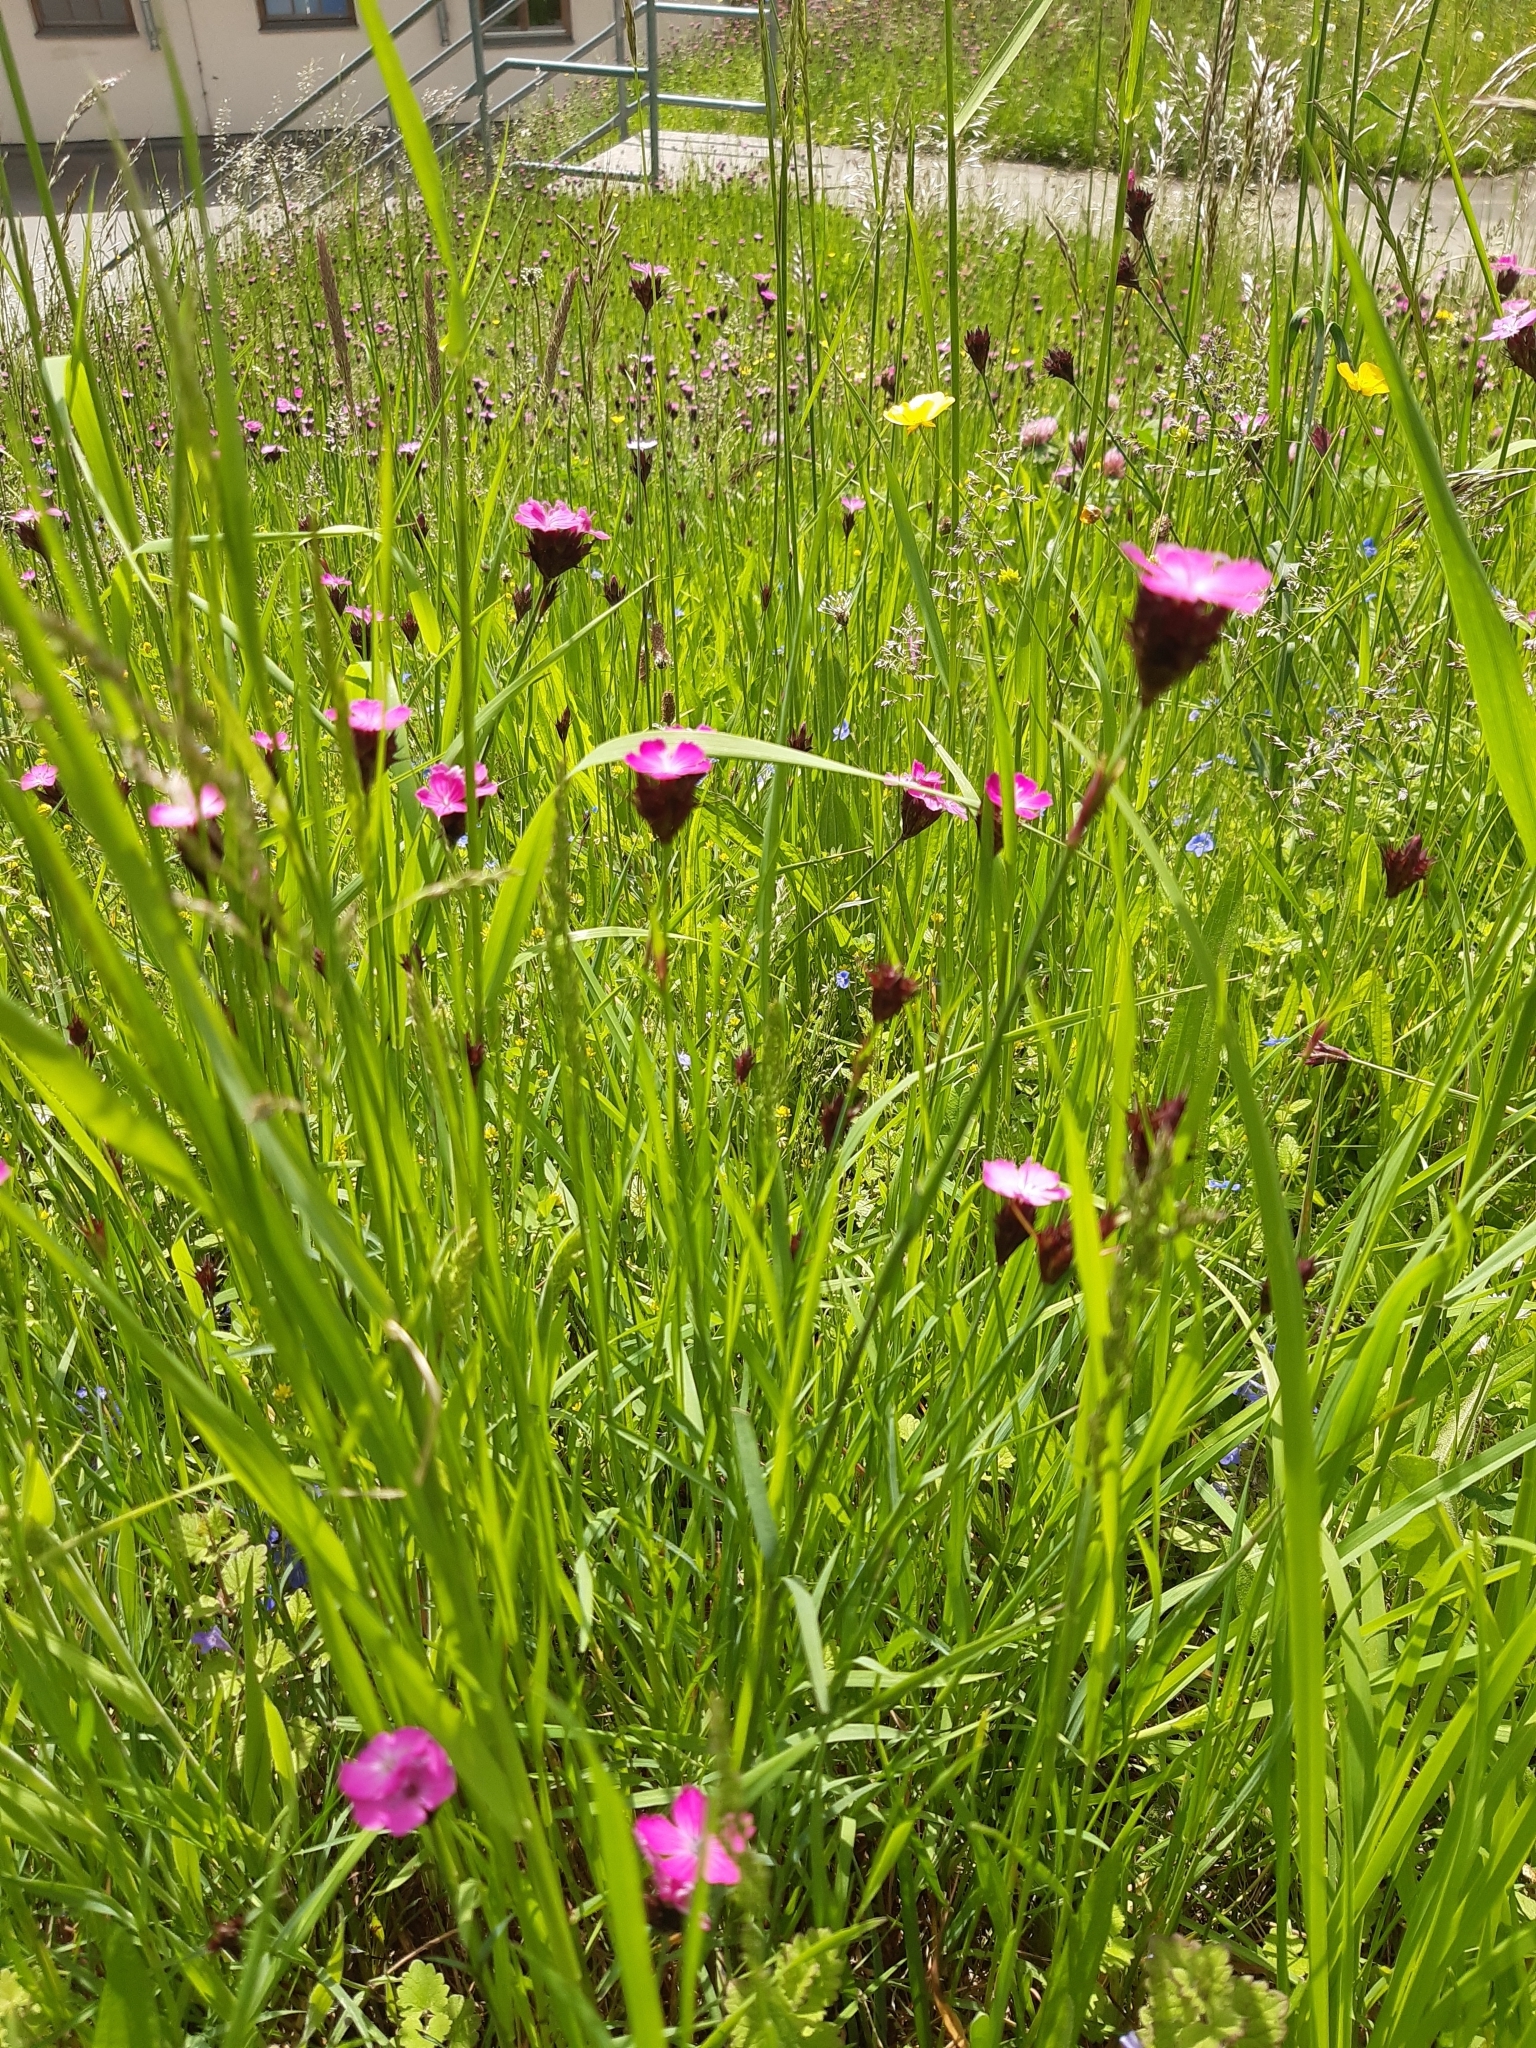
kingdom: Plantae
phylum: Tracheophyta
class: Magnoliopsida
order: Caryophyllales
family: Caryophyllaceae
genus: Dianthus
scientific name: Dianthus carthusianorum
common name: Carthusian pink
